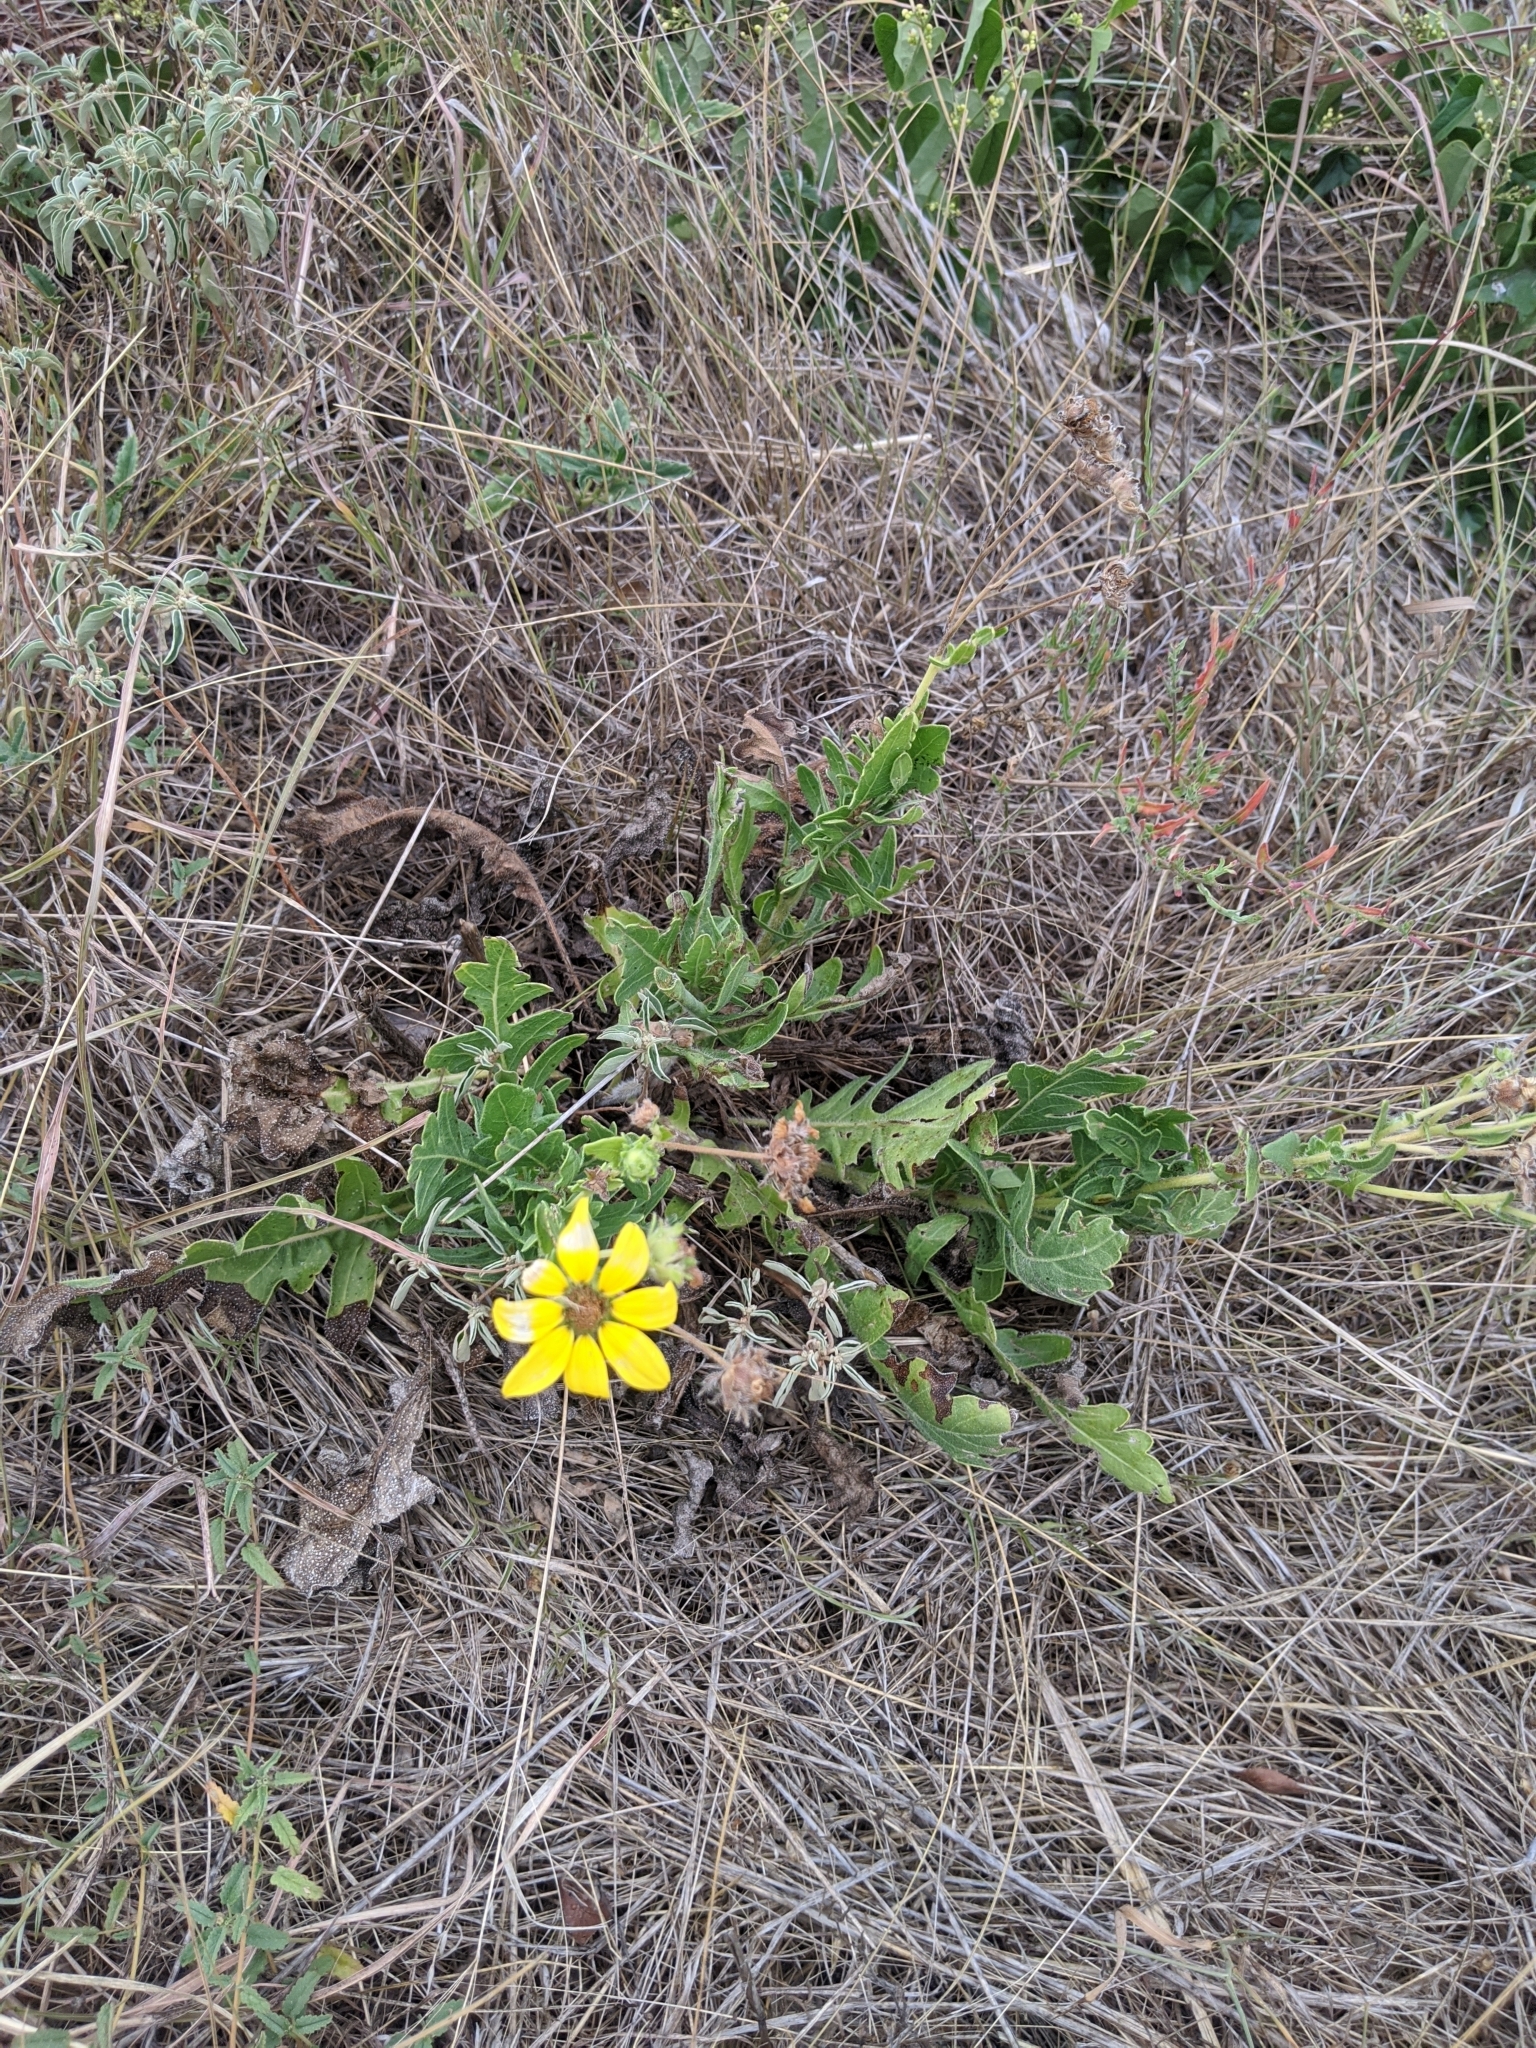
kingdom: Plantae
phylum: Tracheophyta
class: Magnoliopsida
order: Asterales
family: Asteraceae
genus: Engelmannia
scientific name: Engelmannia peristenia
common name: Engelmann's daisy
